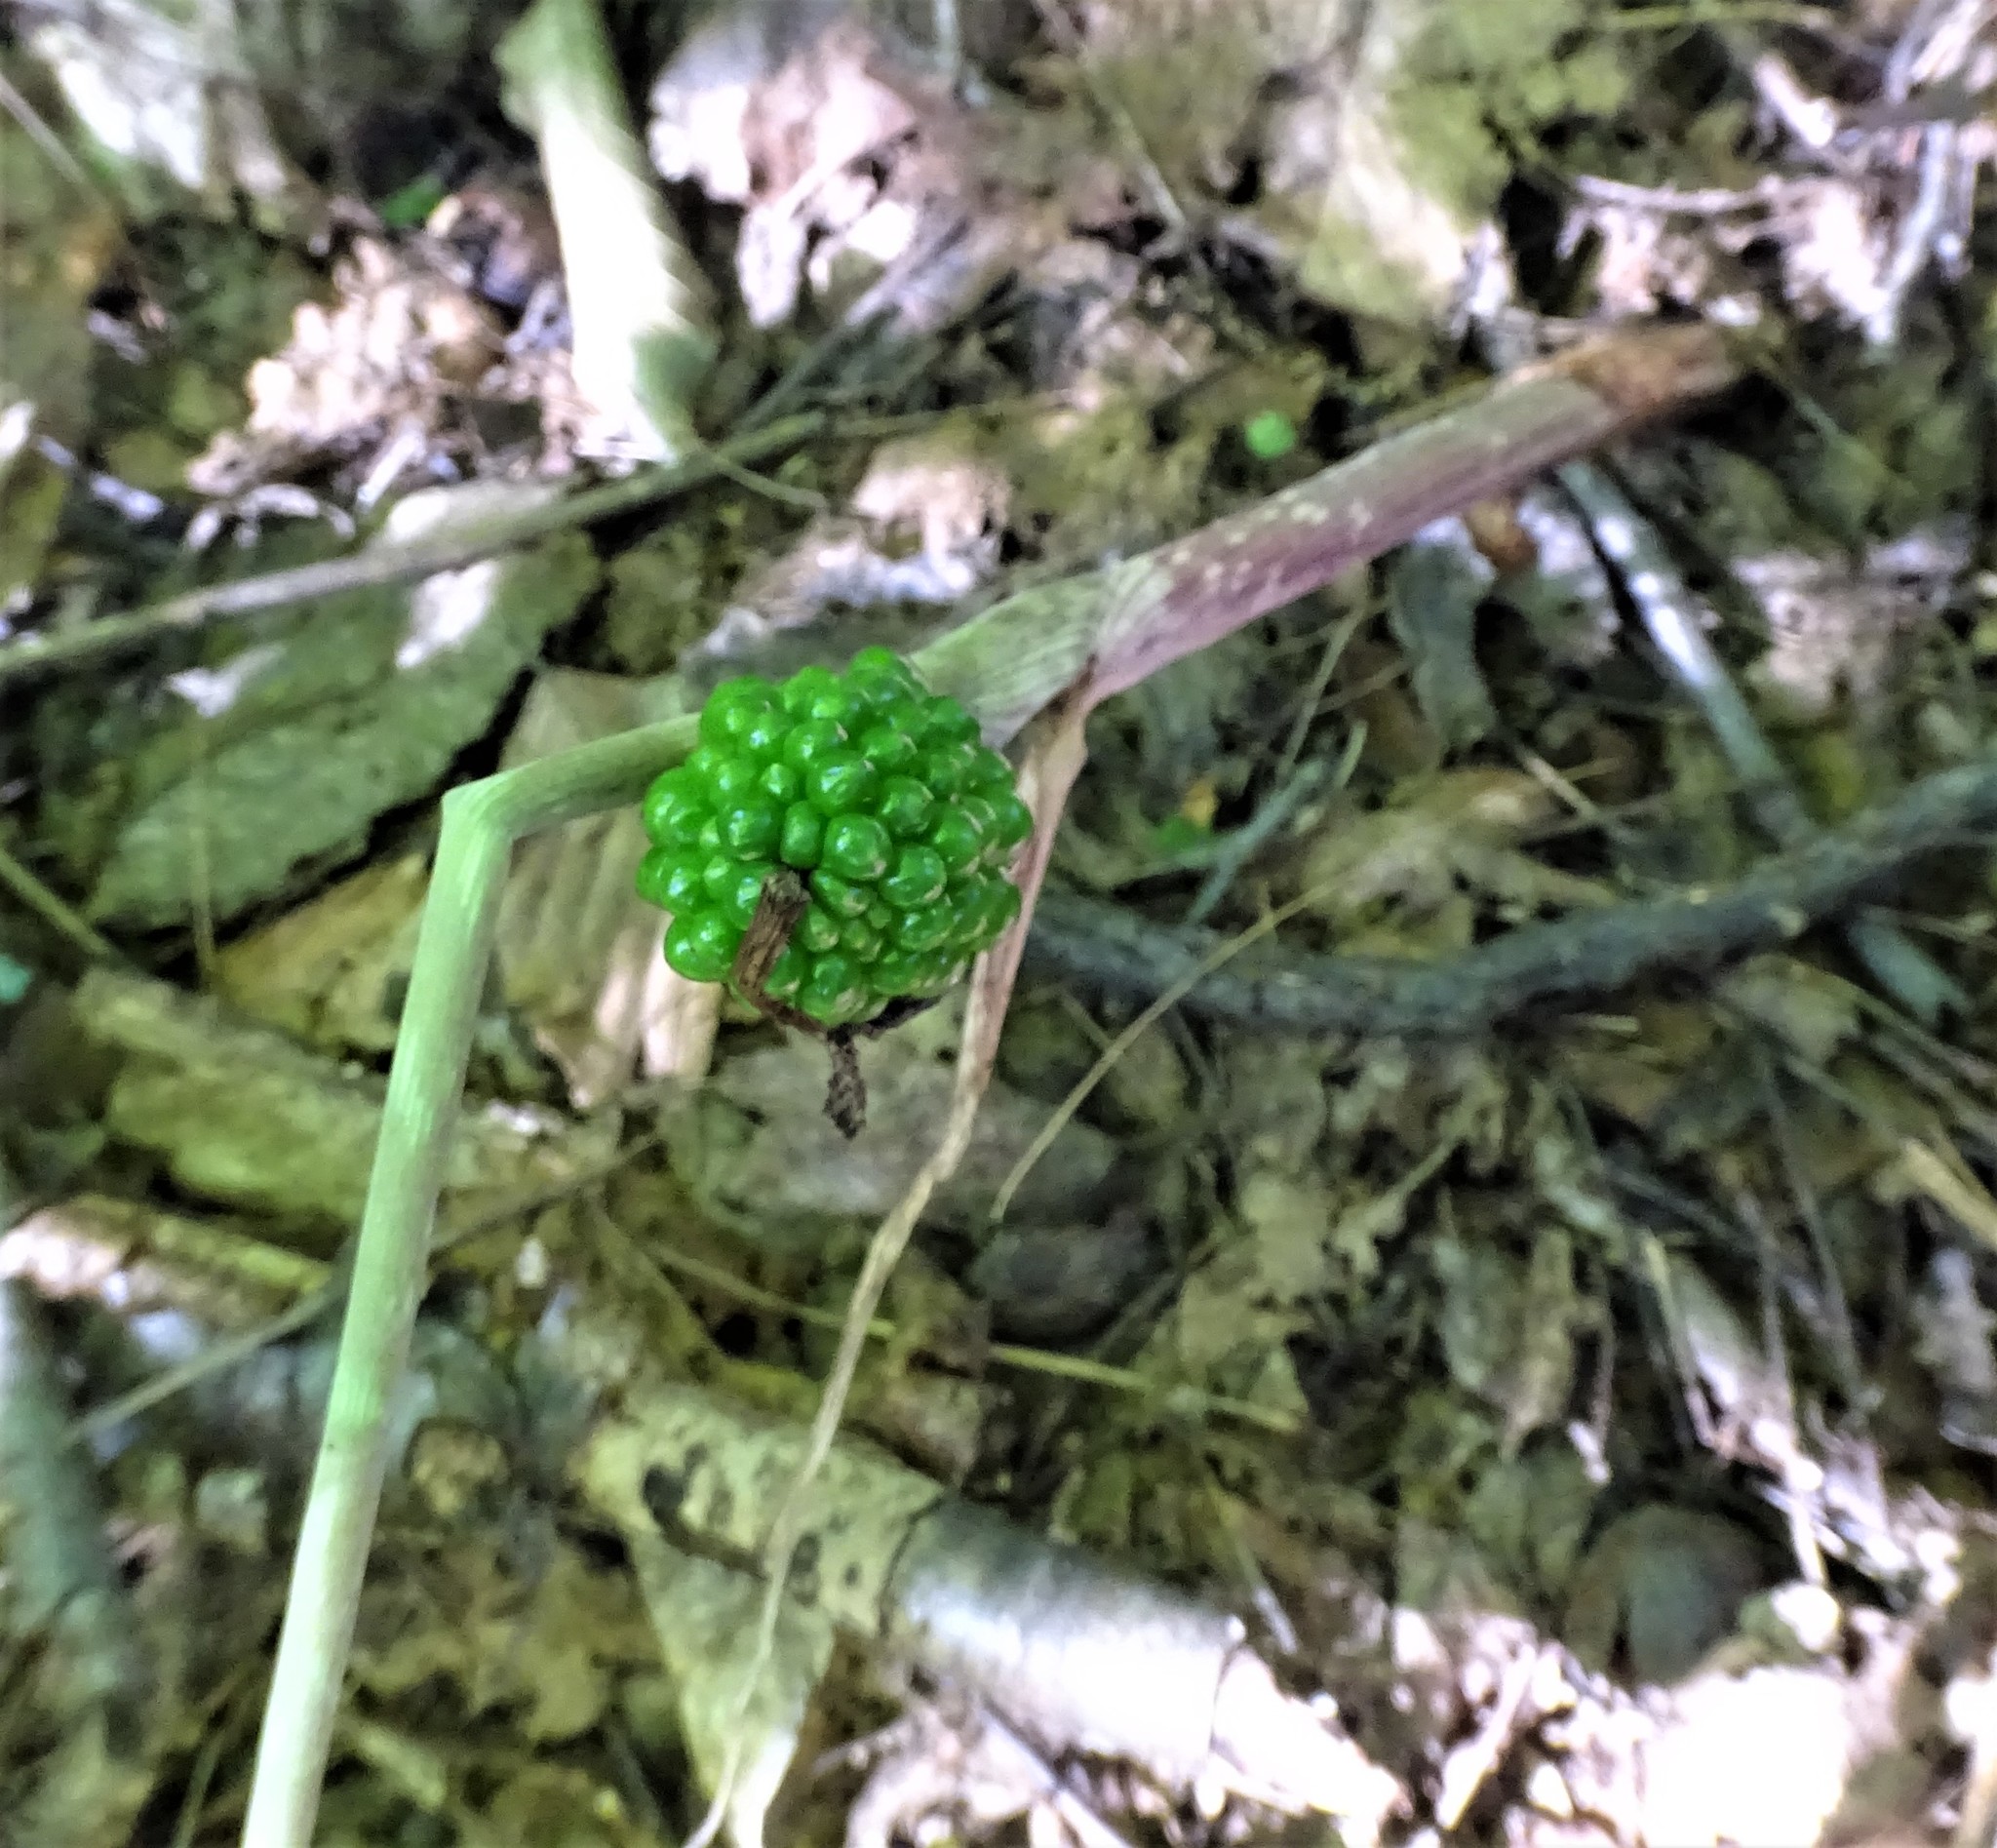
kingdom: Plantae
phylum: Tracheophyta
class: Liliopsida
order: Alismatales
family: Araceae
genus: Arisaema
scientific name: Arisaema triphyllum
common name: Jack-in-the-pulpit
